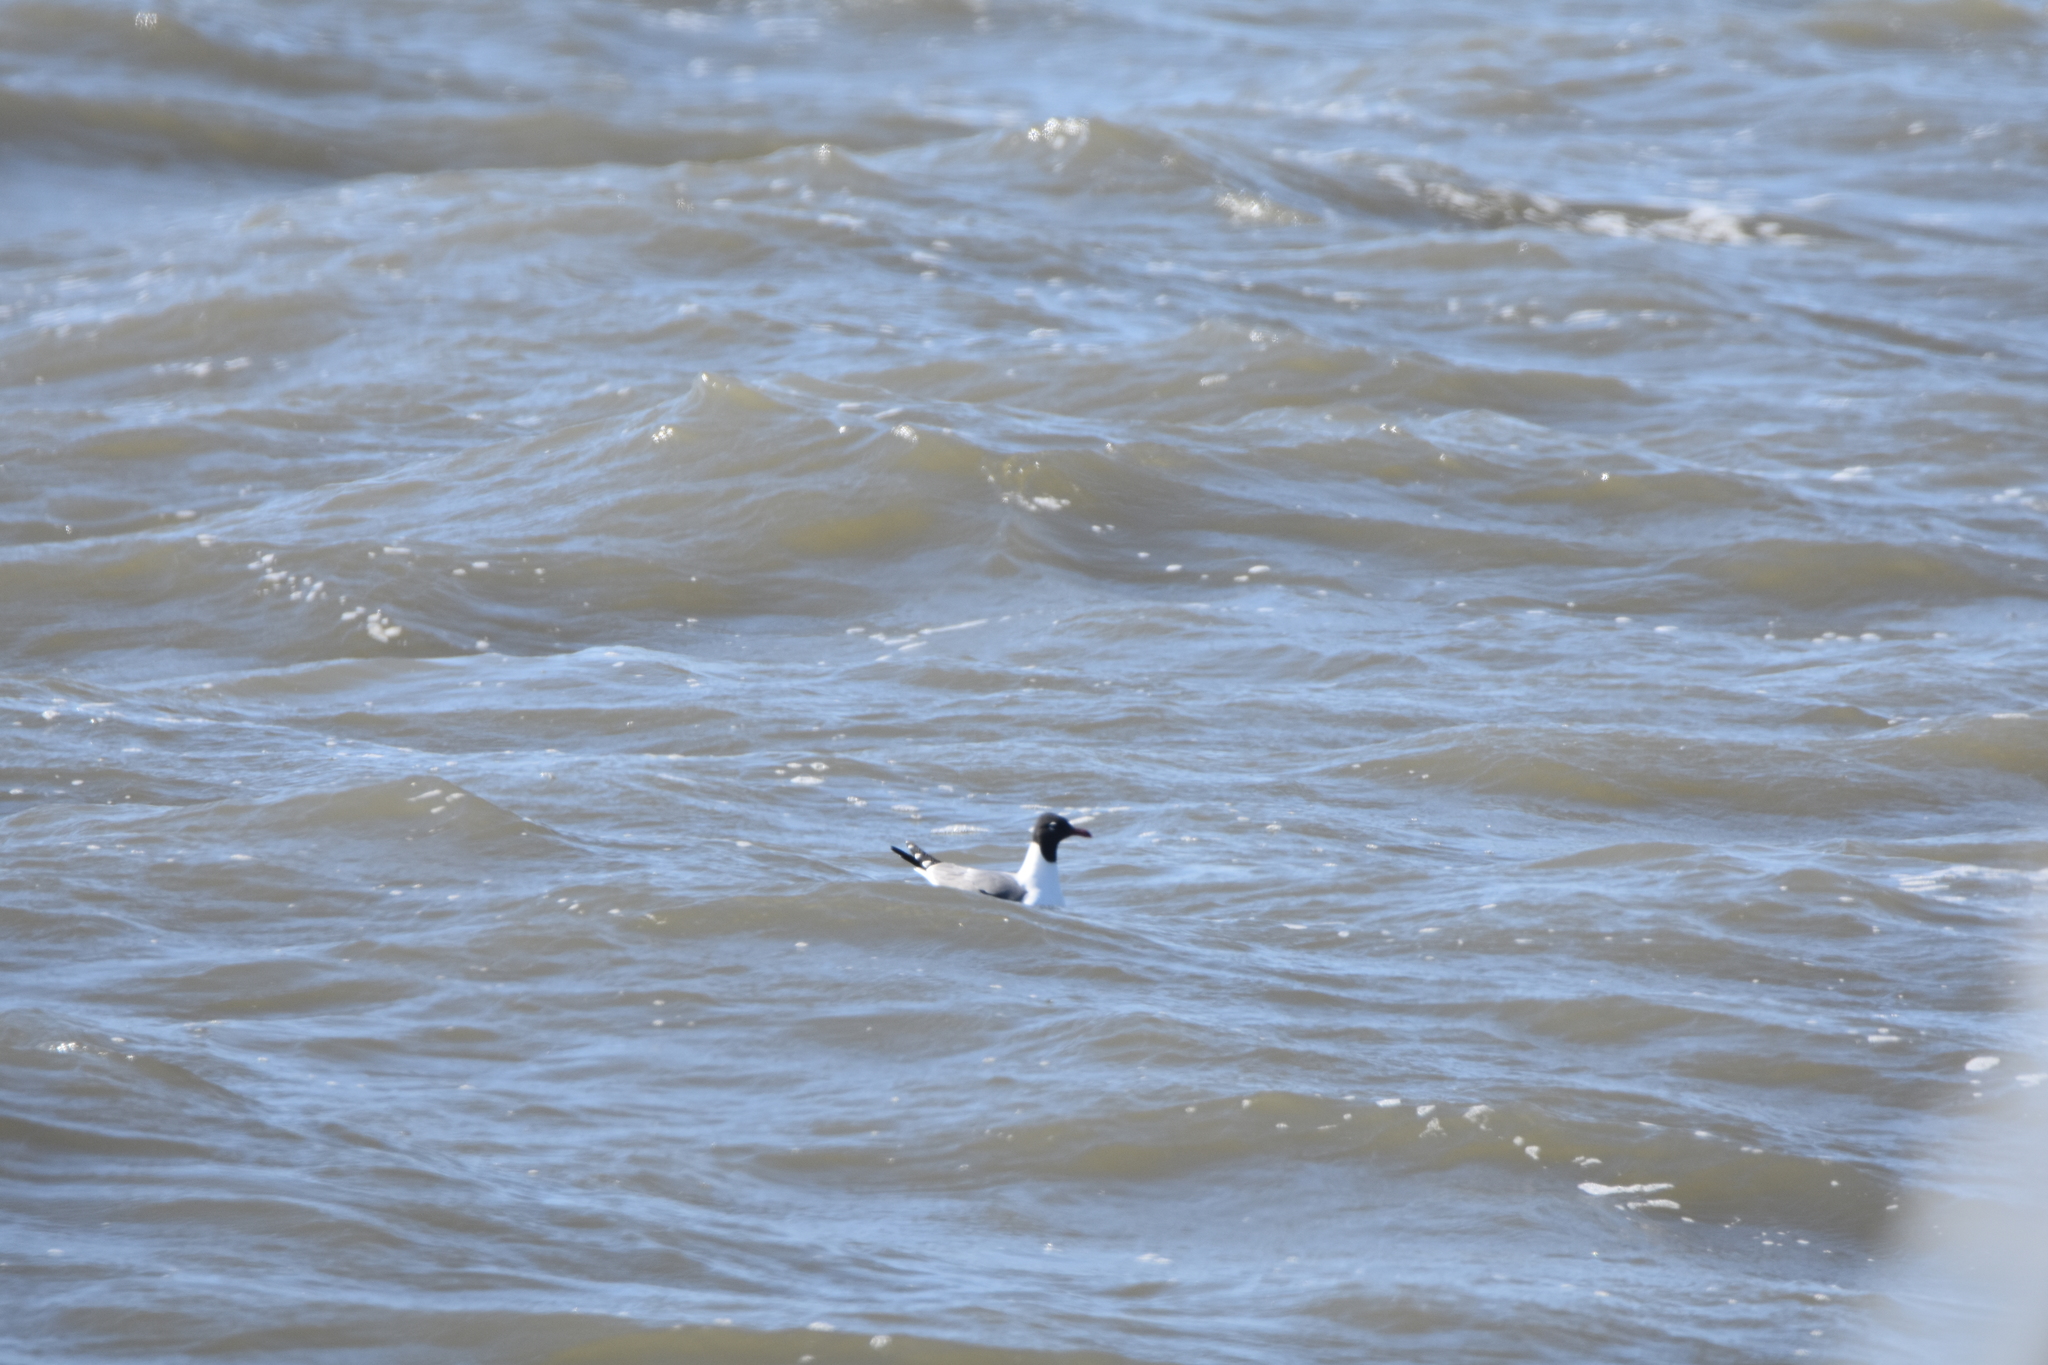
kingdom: Animalia
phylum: Chordata
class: Aves
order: Charadriiformes
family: Laridae
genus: Leucophaeus
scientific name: Leucophaeus atricilla
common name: Laughing gull
